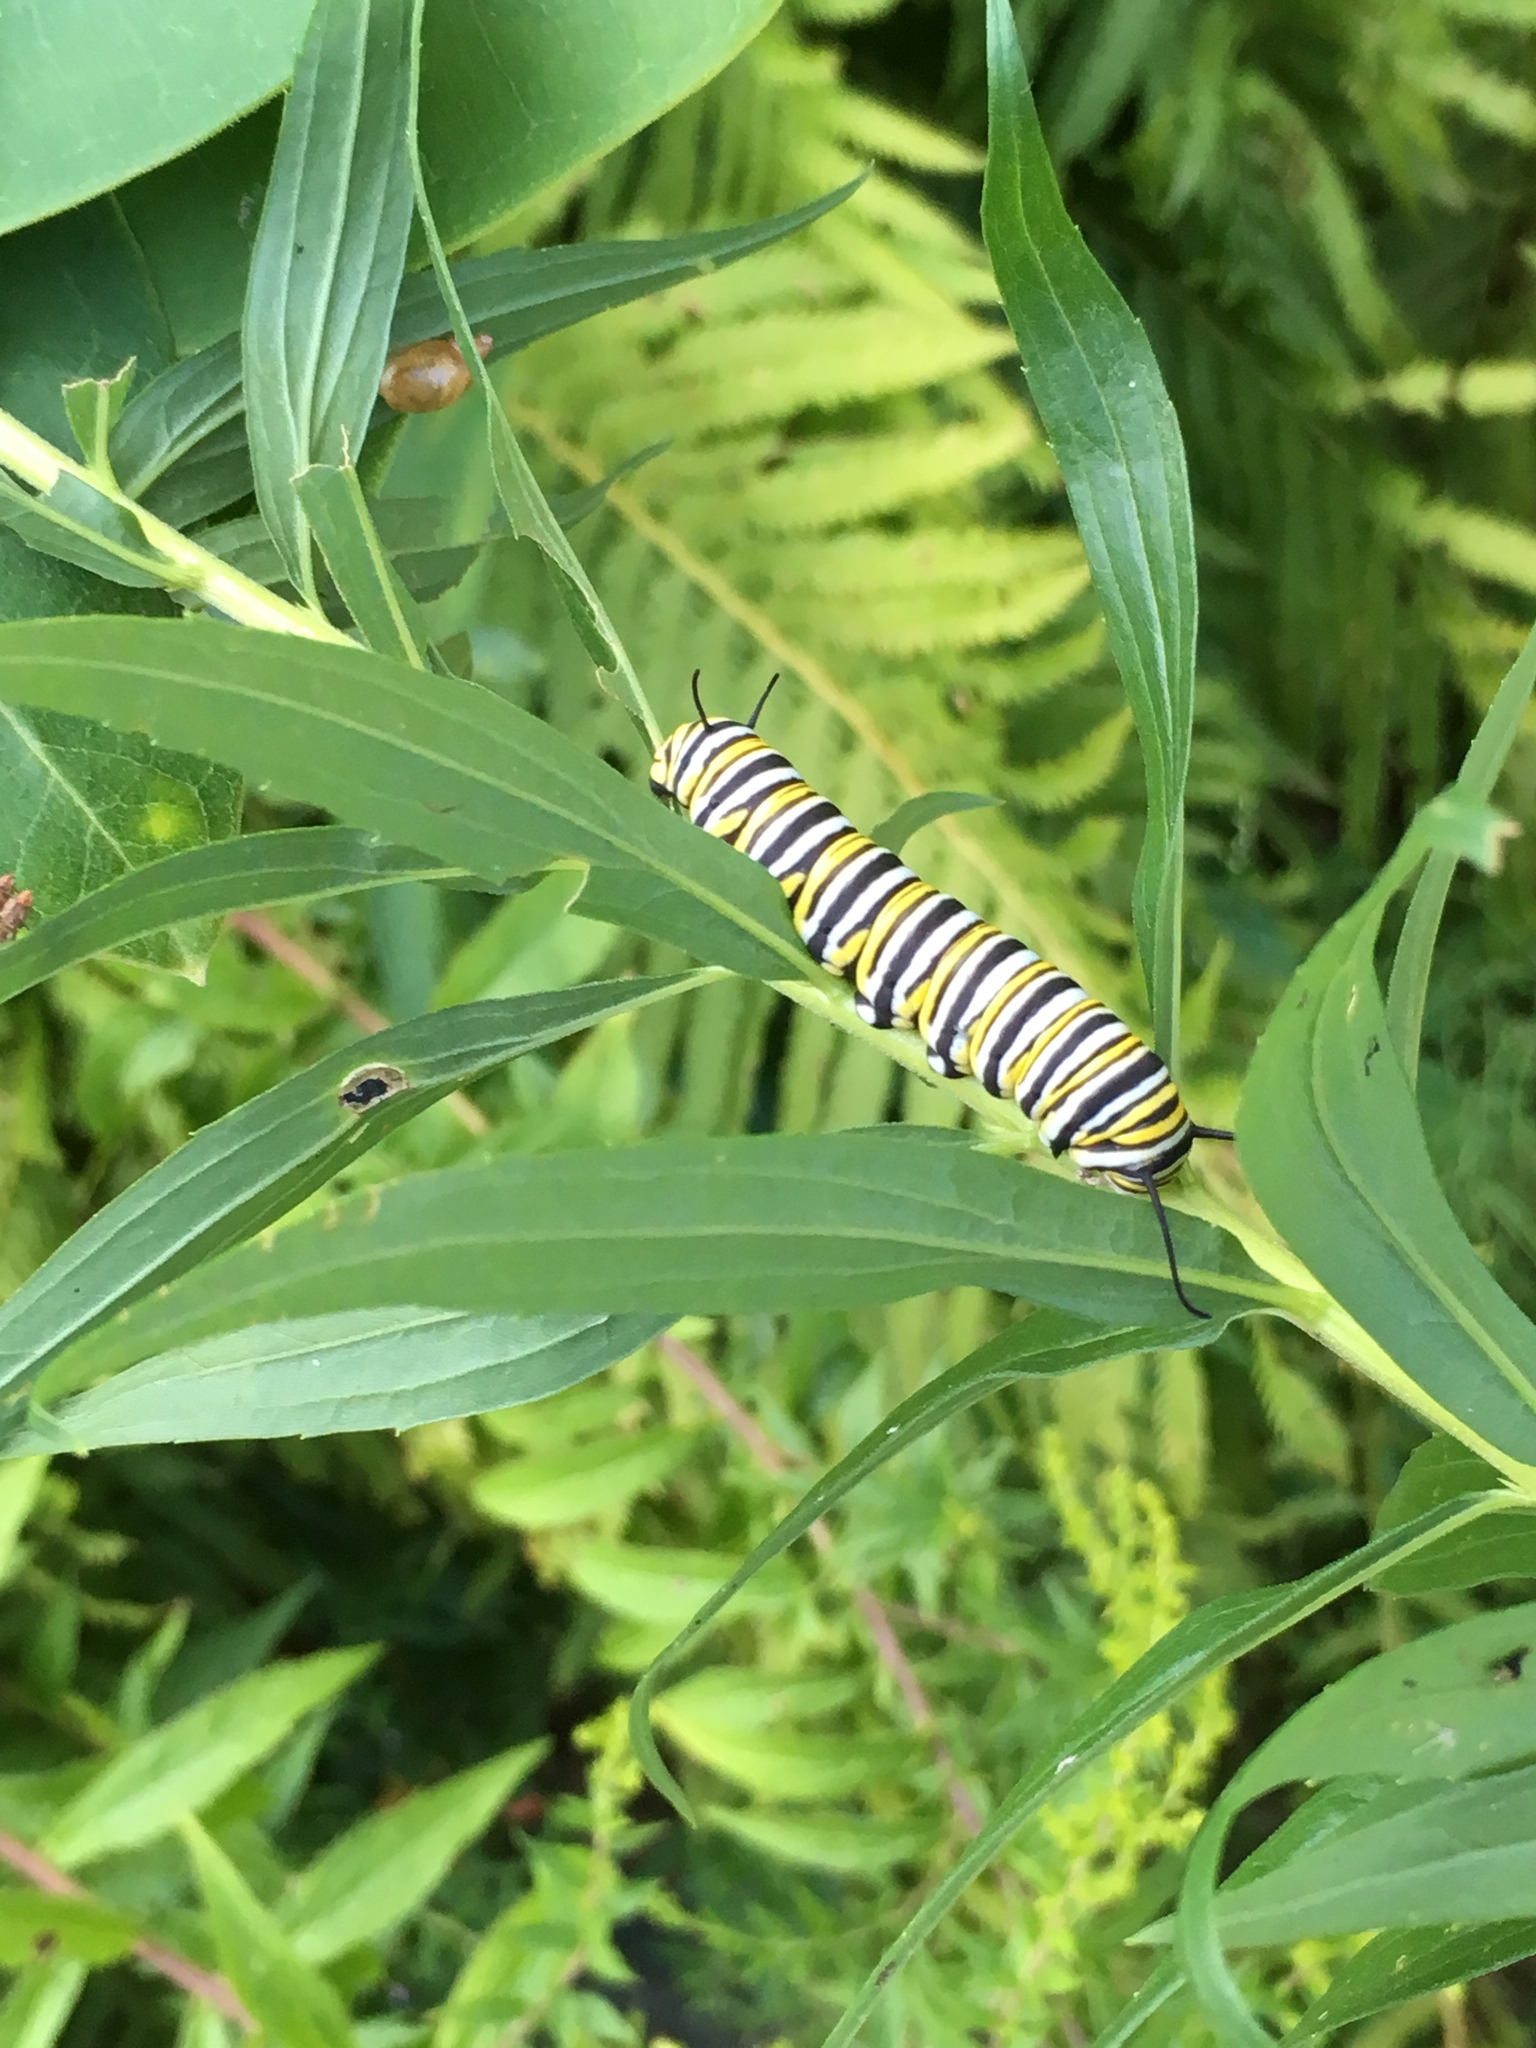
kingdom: Animalia
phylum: Arthropoda
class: Insecta
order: Lepidoptera
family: Nymphalidae
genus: Danaus
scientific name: Danaus plexippus
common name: Monarch
